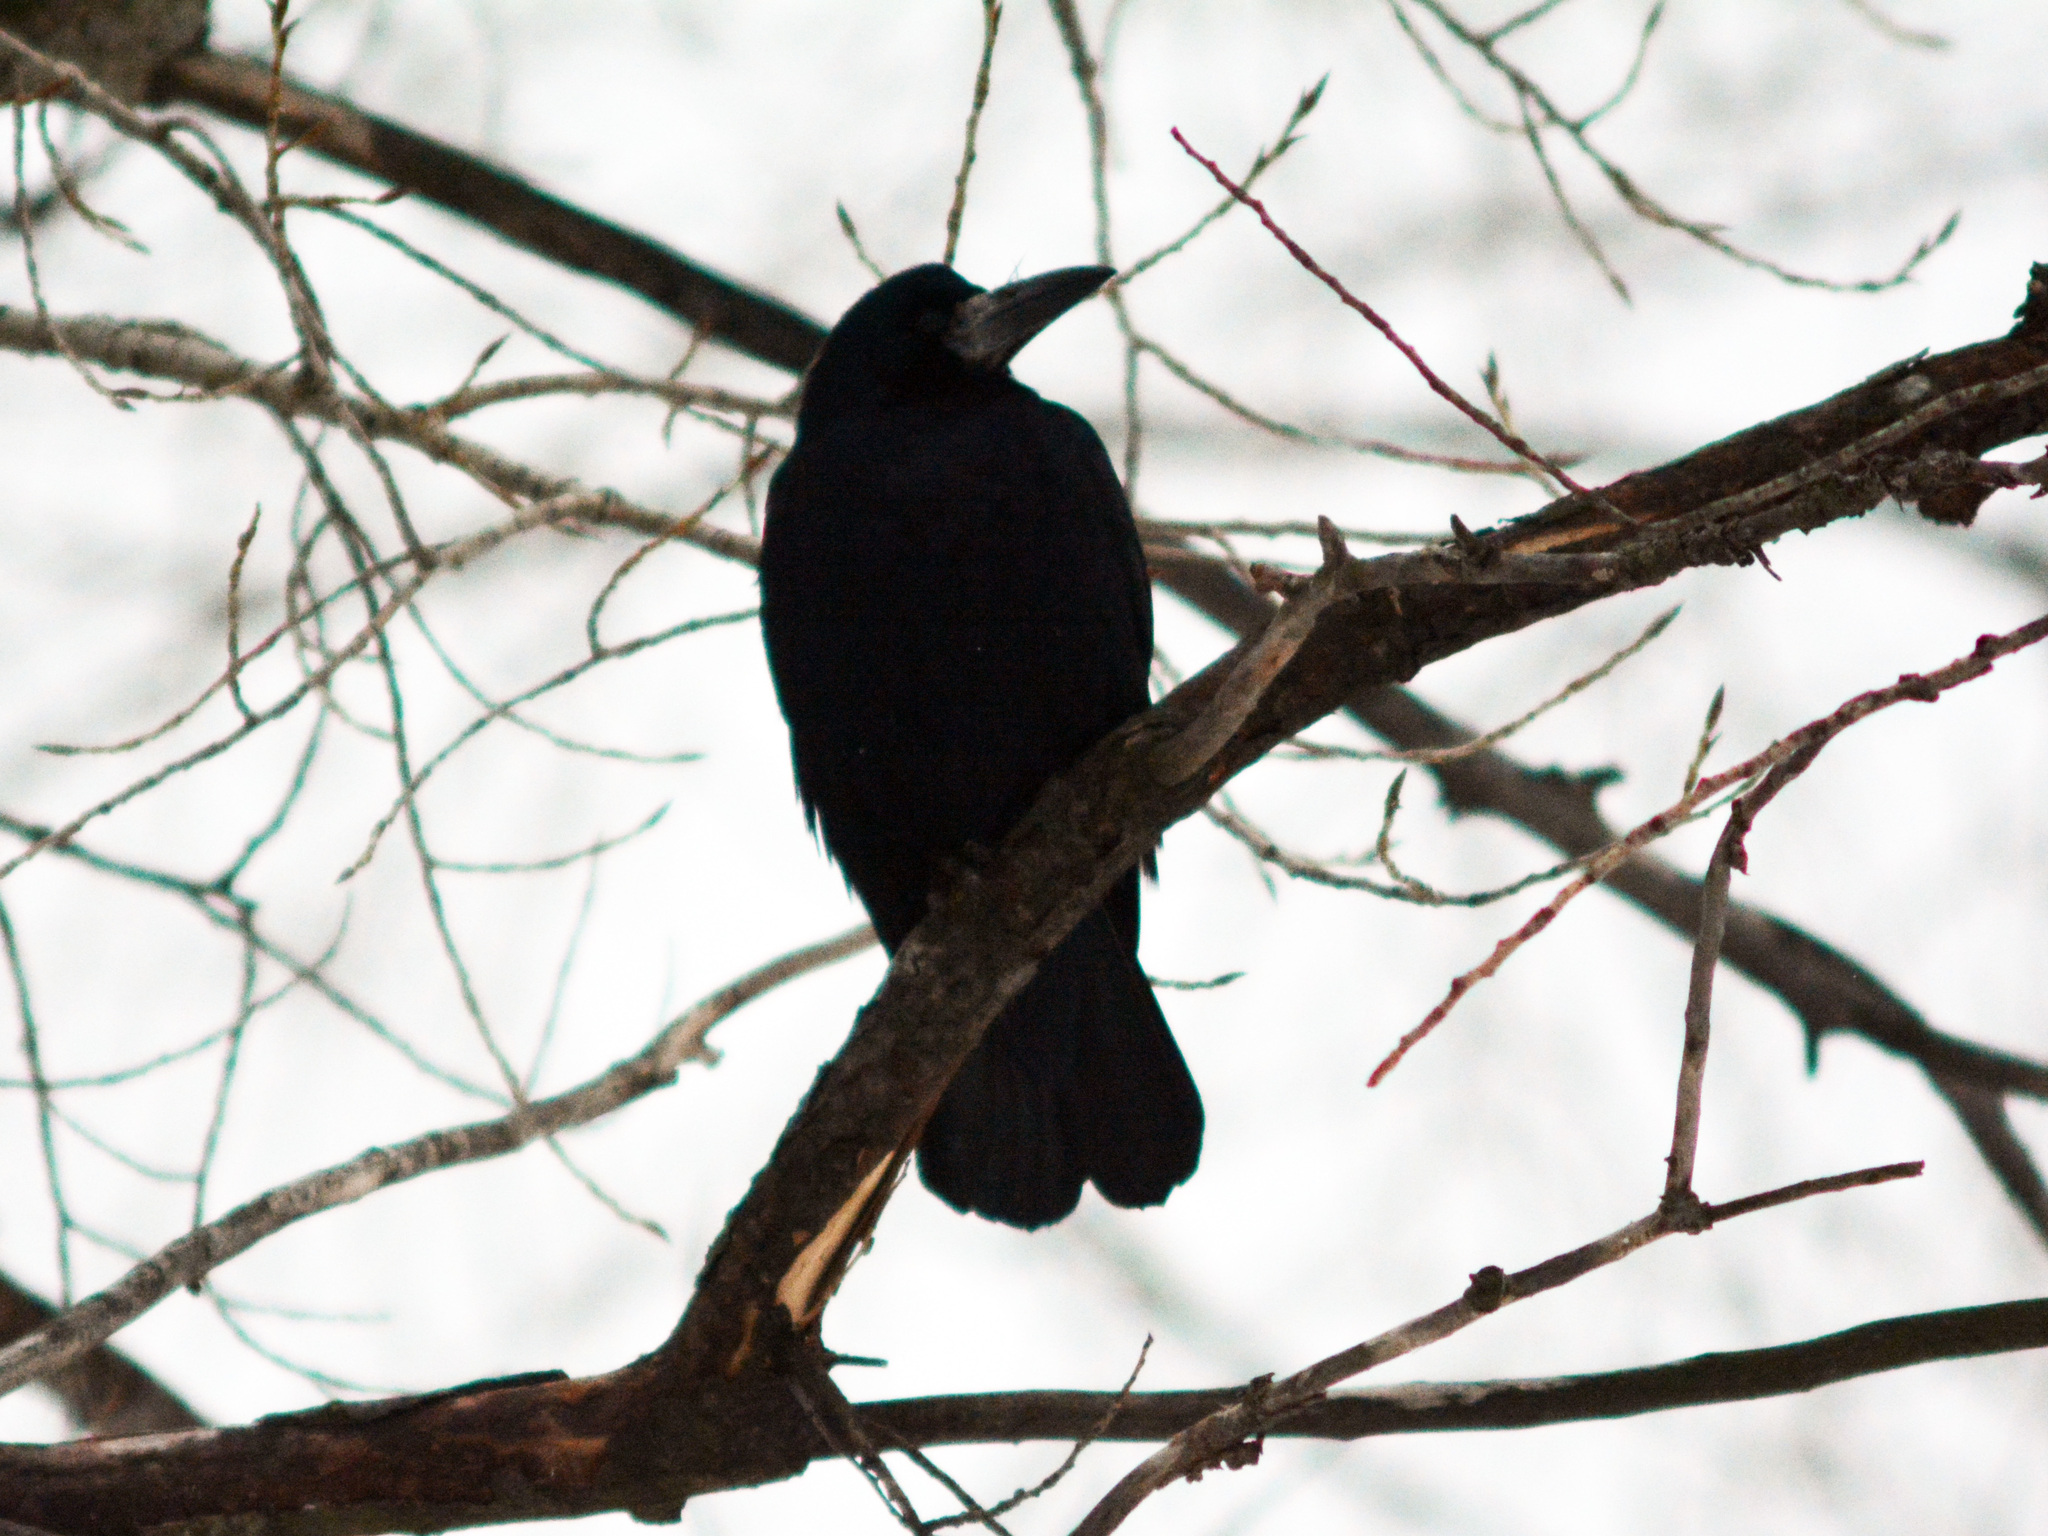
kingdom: Animalia
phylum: Chordata
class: Aves
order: Passeriformes
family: Corvidae
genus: Corvus
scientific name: Corvus frugilegus
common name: Rook
